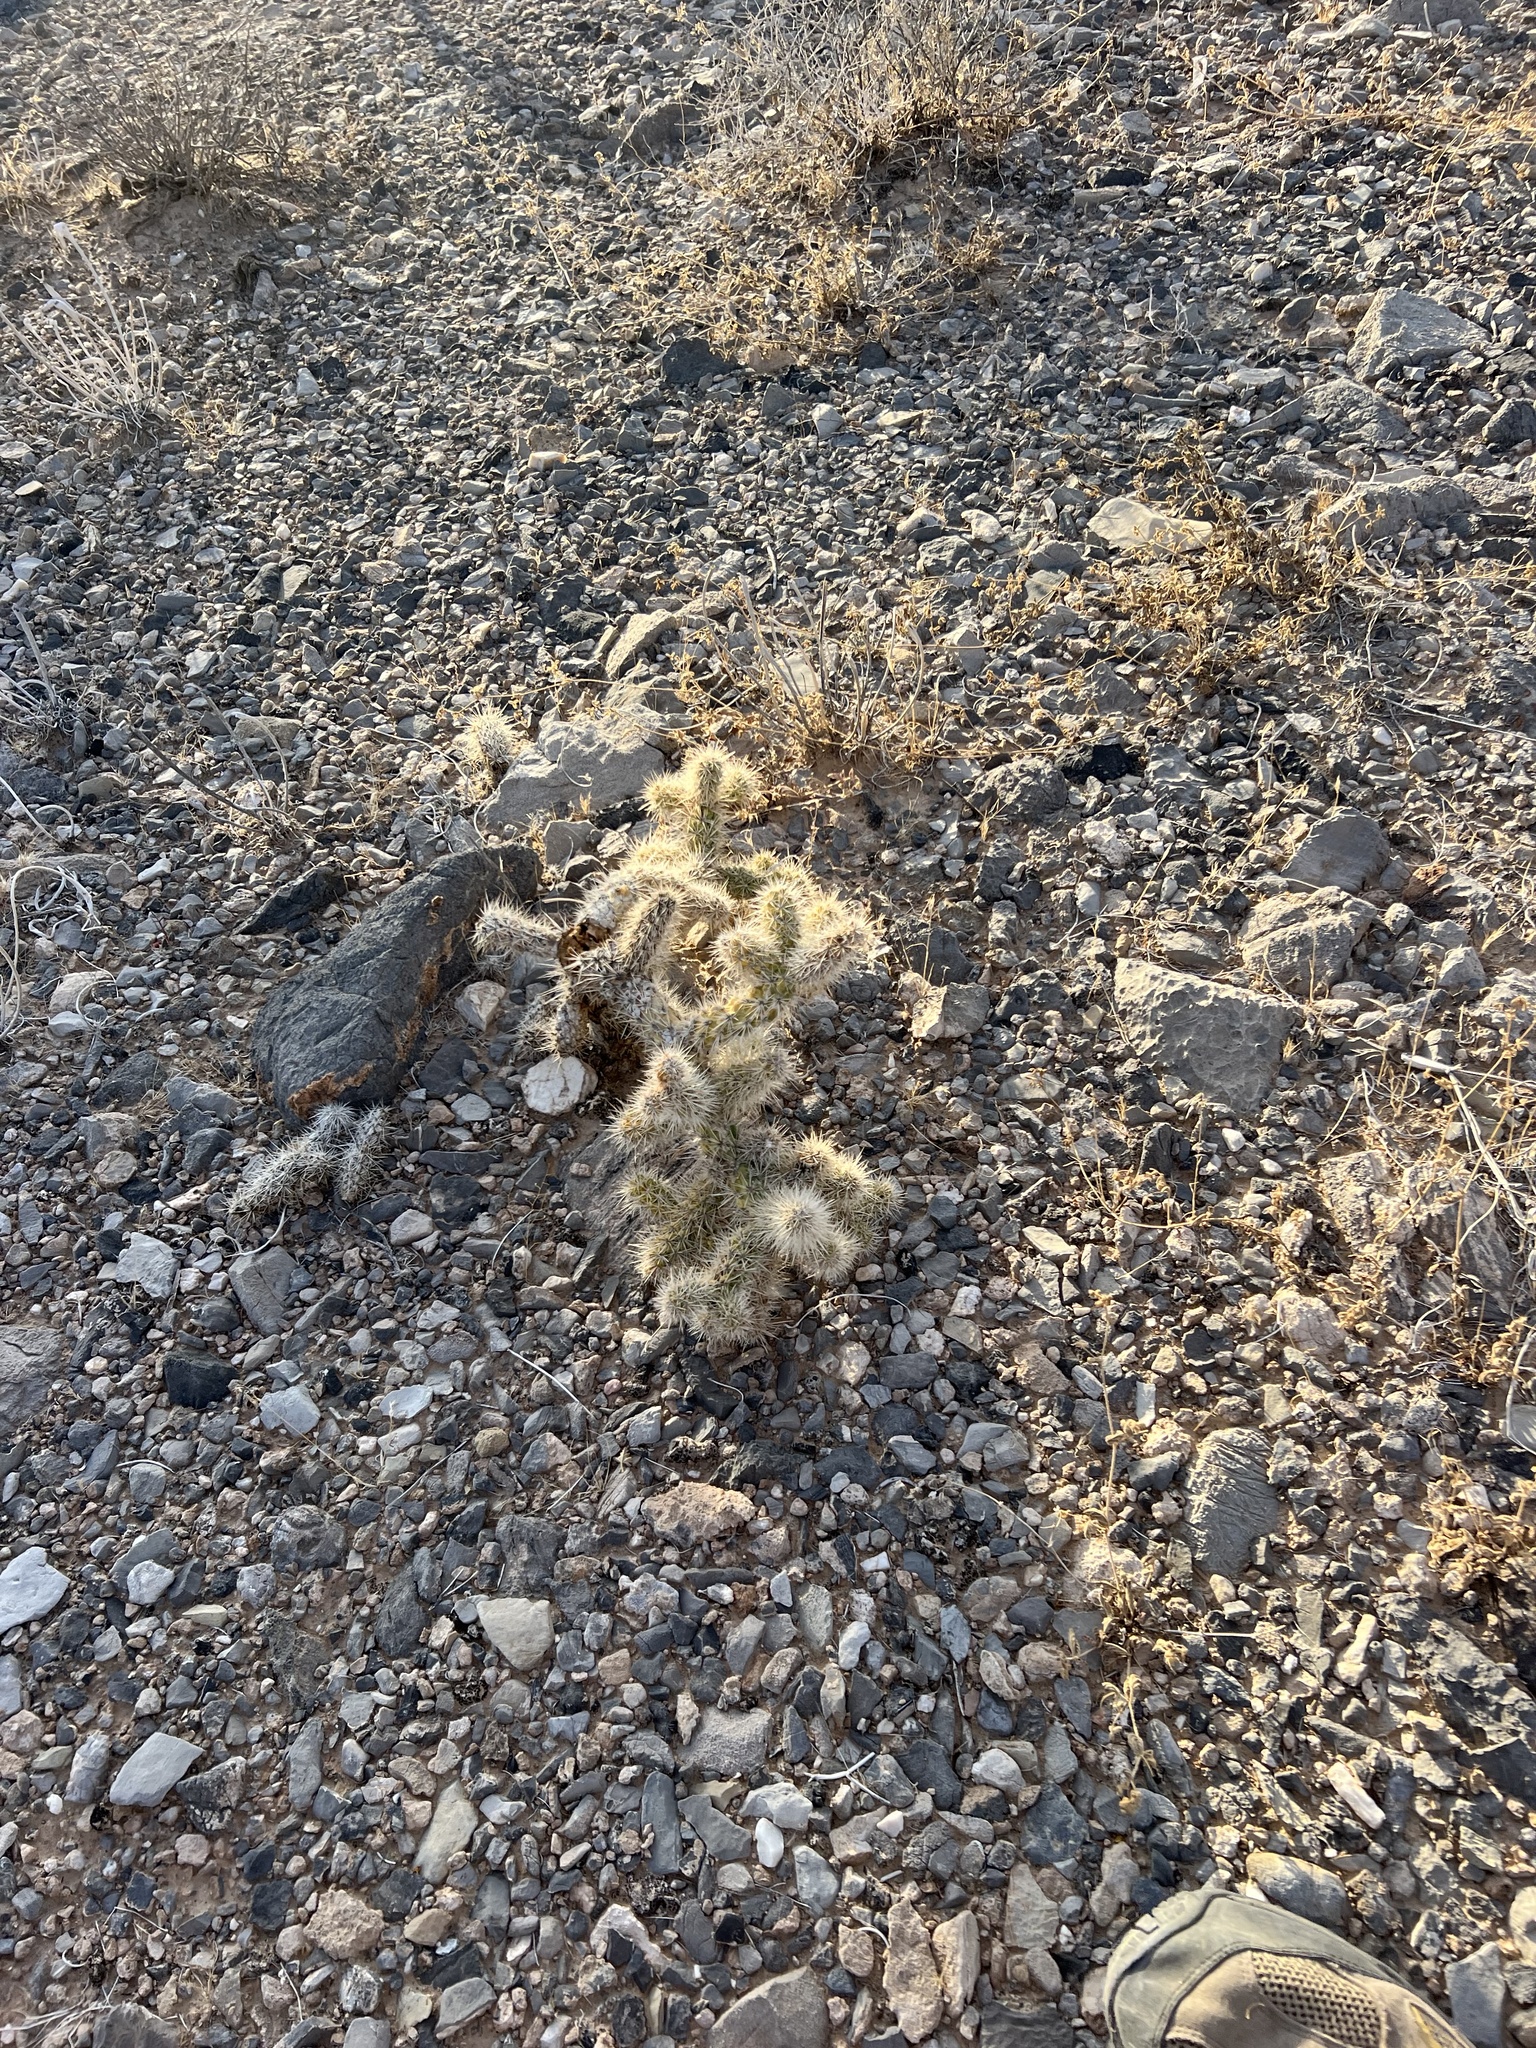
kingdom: Plantae
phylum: Tracheophyta
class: Magnoliopsida
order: Caryophyllales
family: Cactaceae
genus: Cylindropuntia
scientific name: Cylindropuntia echinocarpa
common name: Ground cholla
